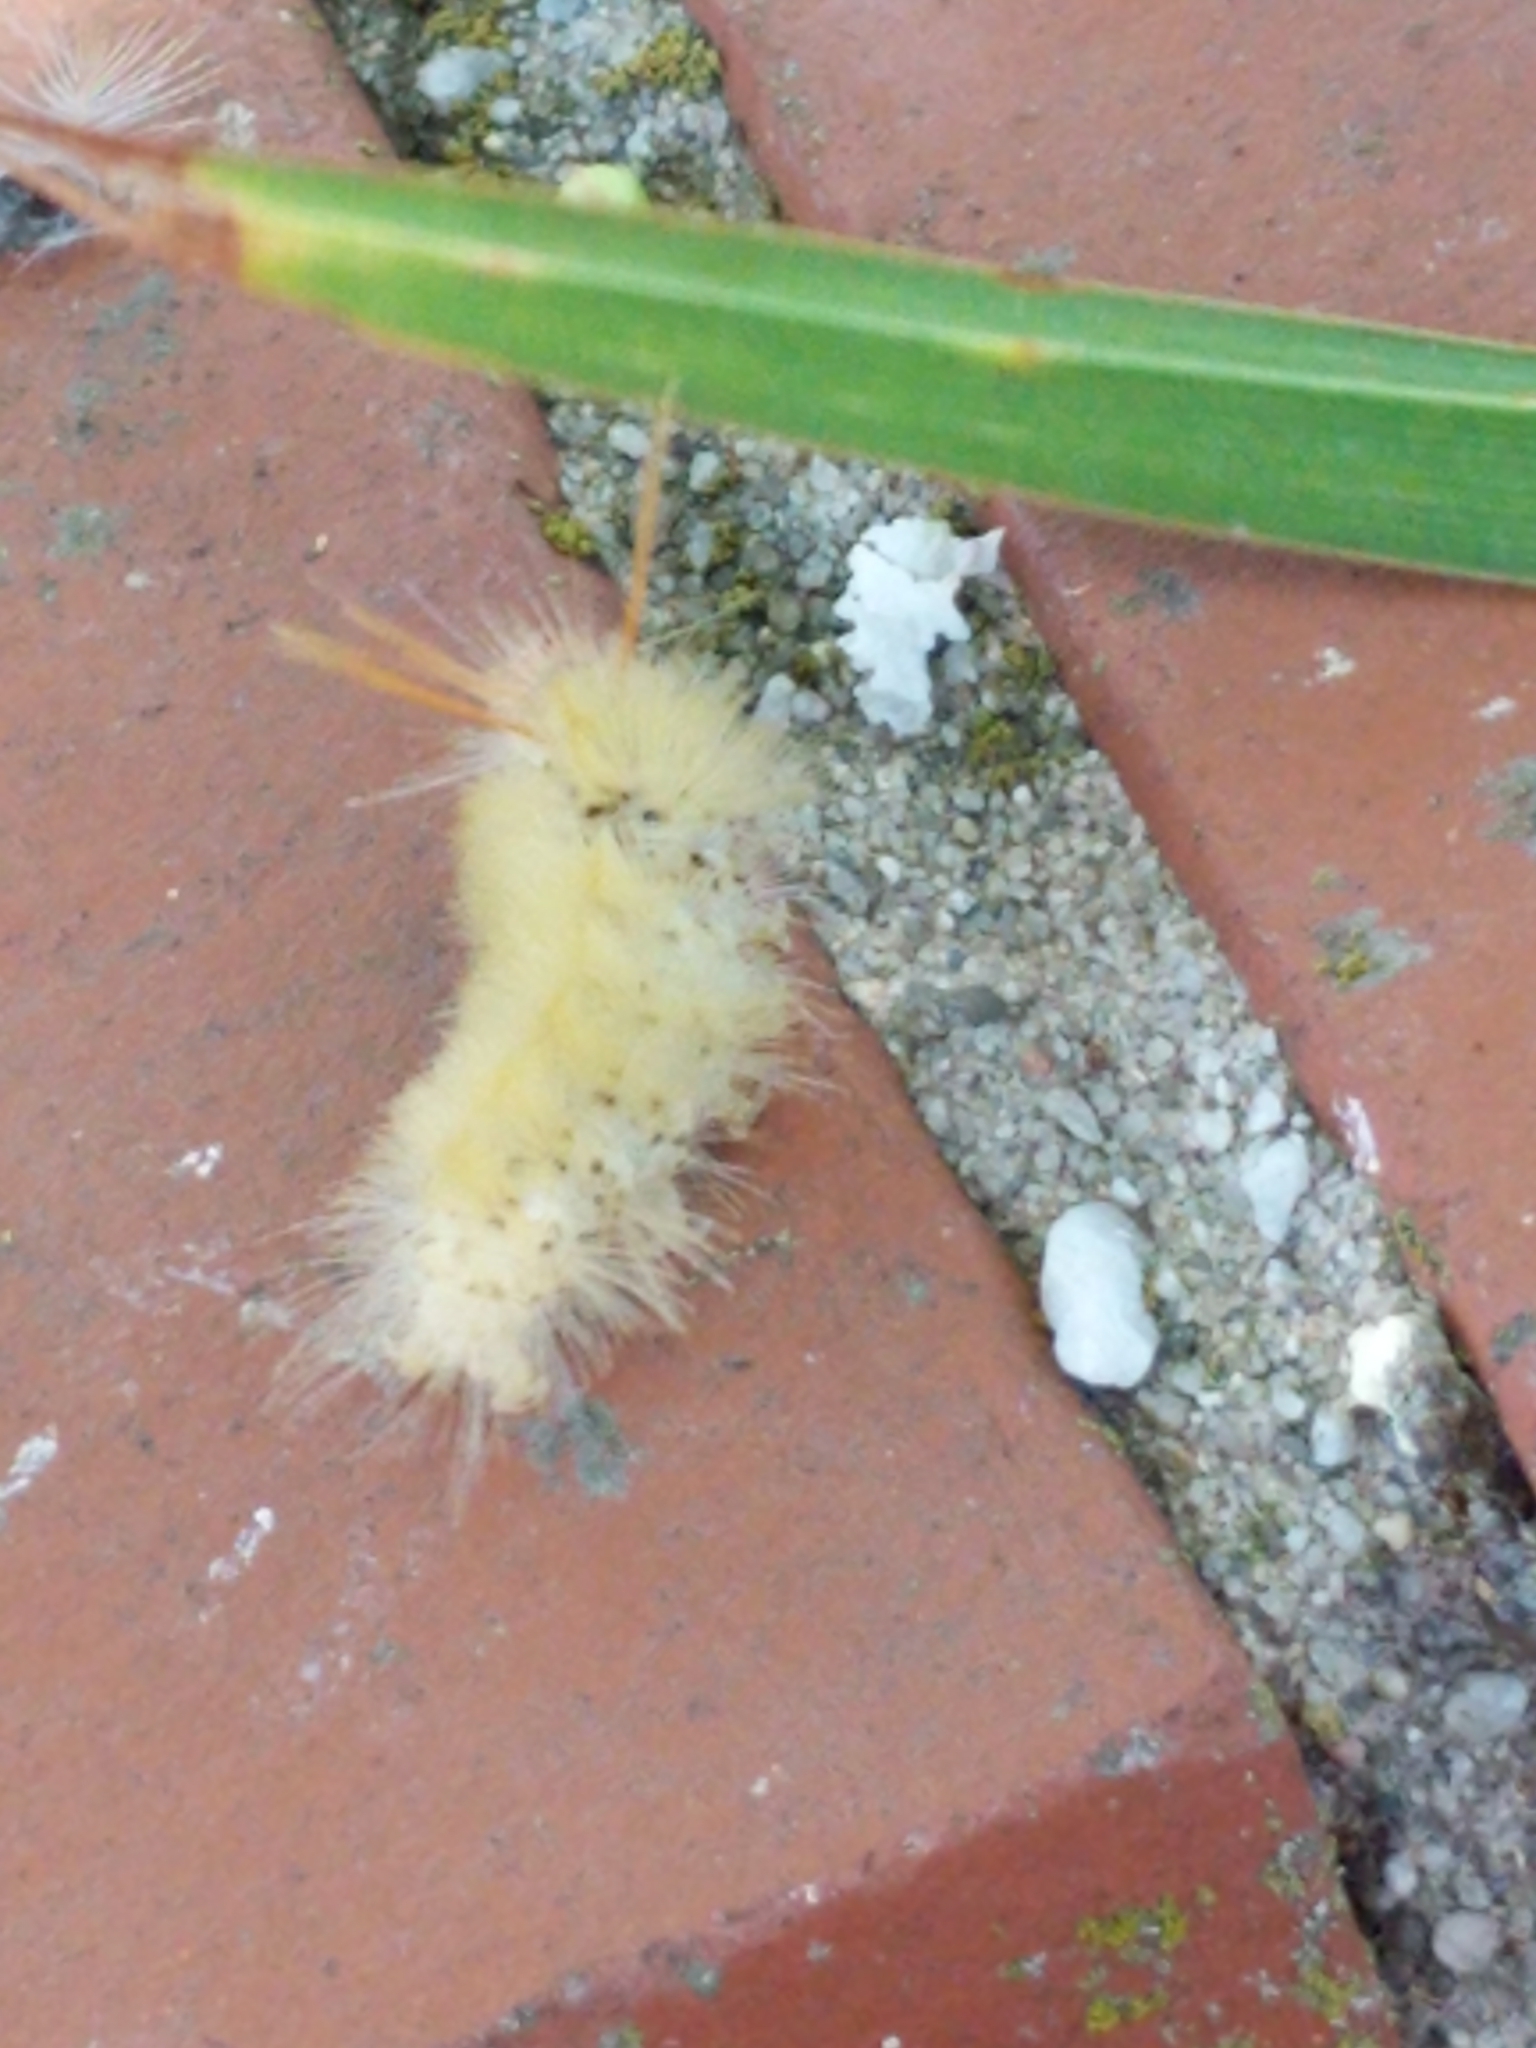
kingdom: Animalia
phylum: Arthropoda
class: Insecta
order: Lepidoptera
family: Erebidae
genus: Halysidota
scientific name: Halysidota harrisii
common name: Sycamore tussock moth
